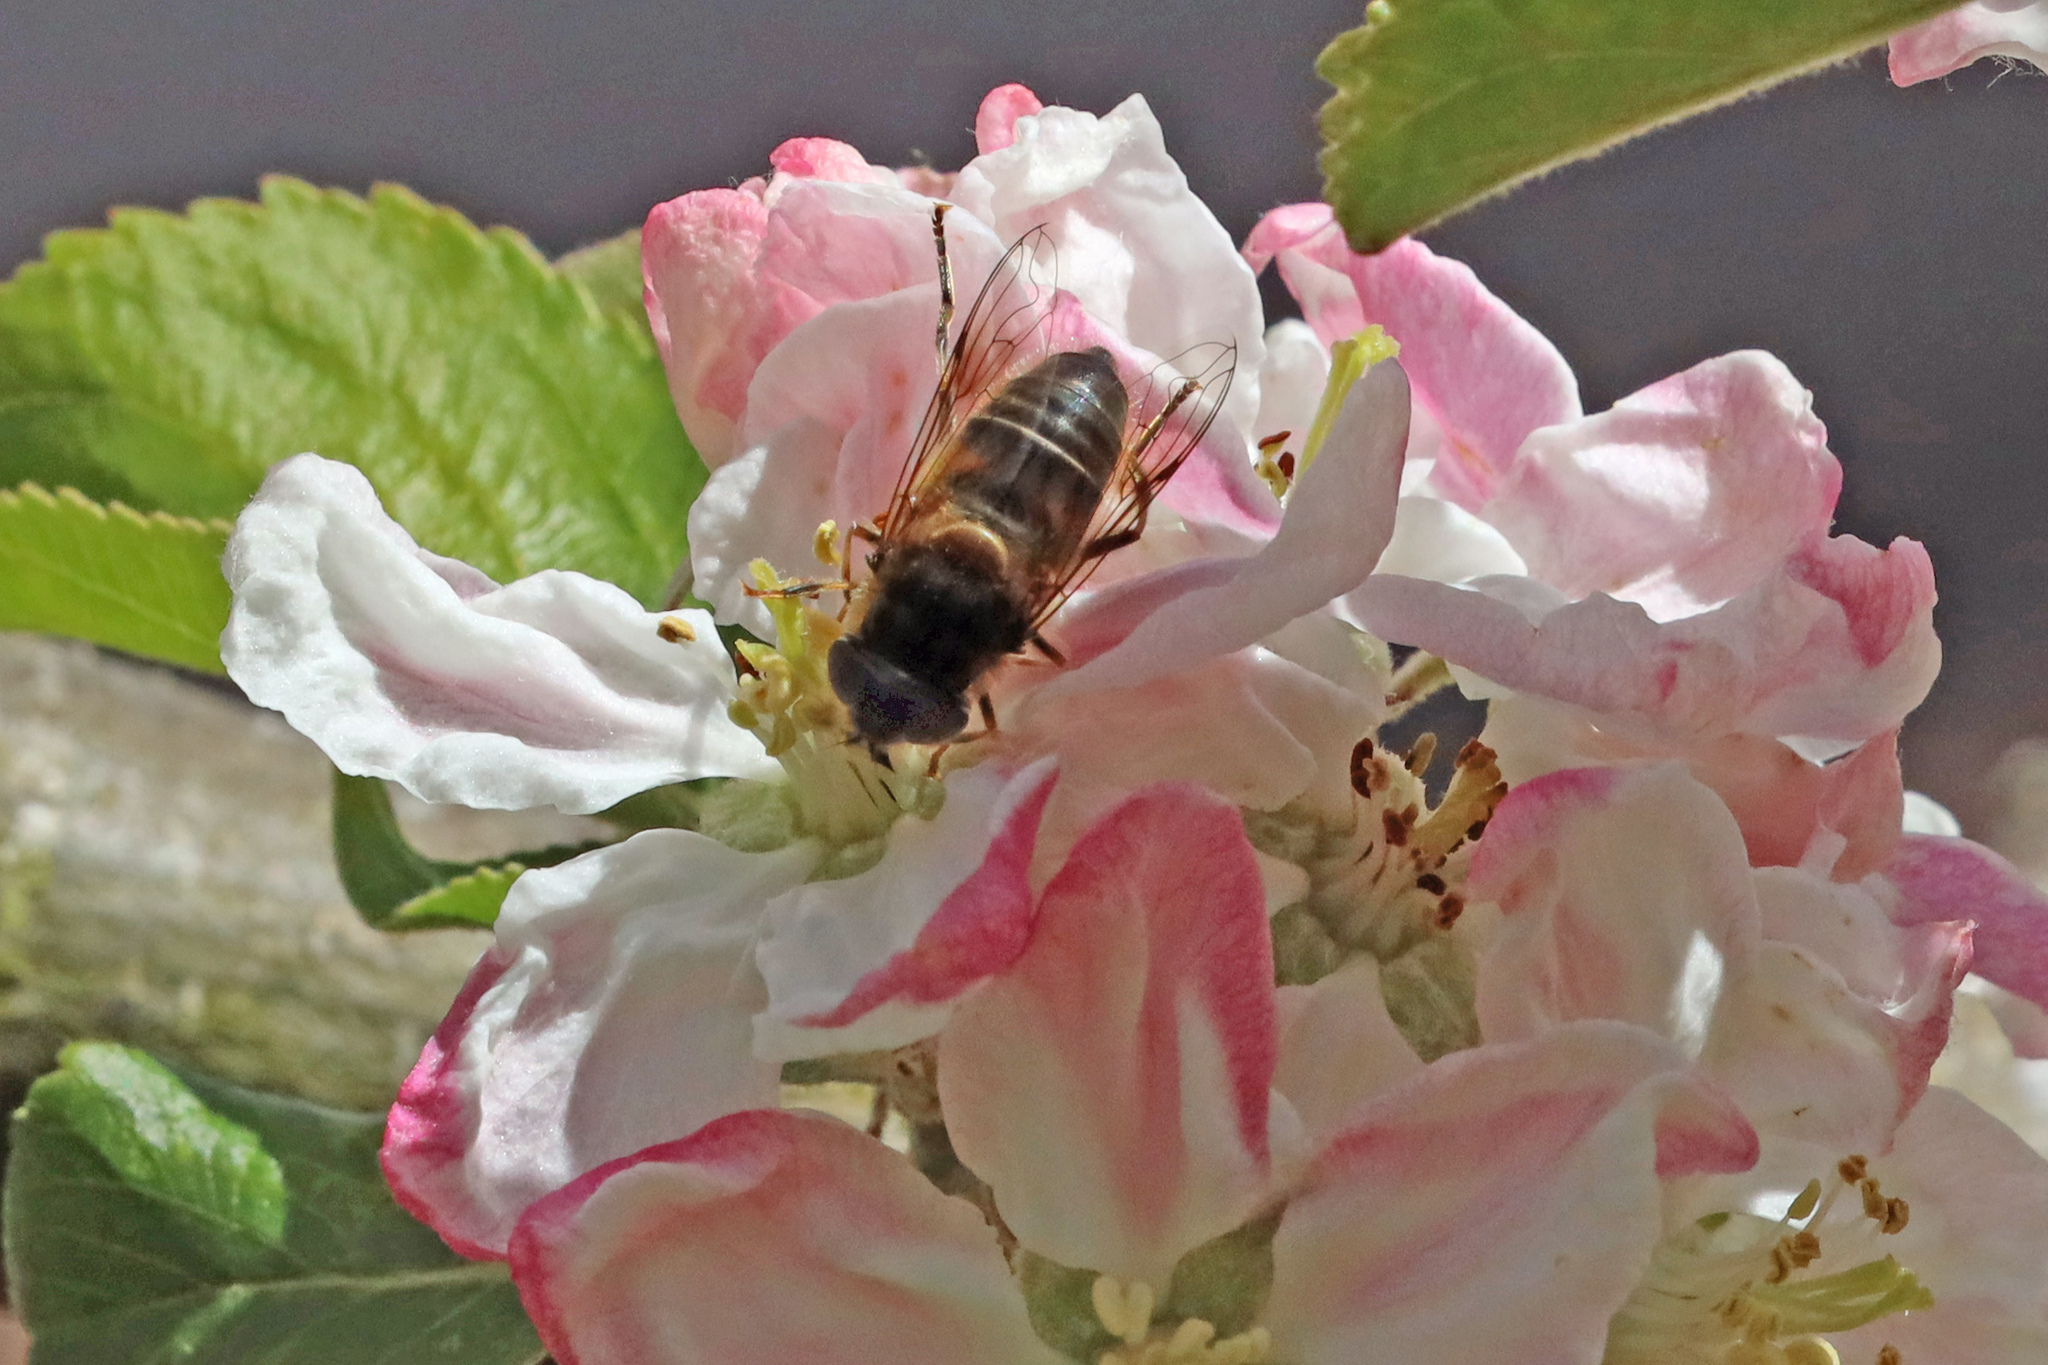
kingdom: Animalia
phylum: Arthropoda
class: Insecta
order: Diptera
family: Syrphidae
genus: Eristalis
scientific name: Eristalis pertinax
